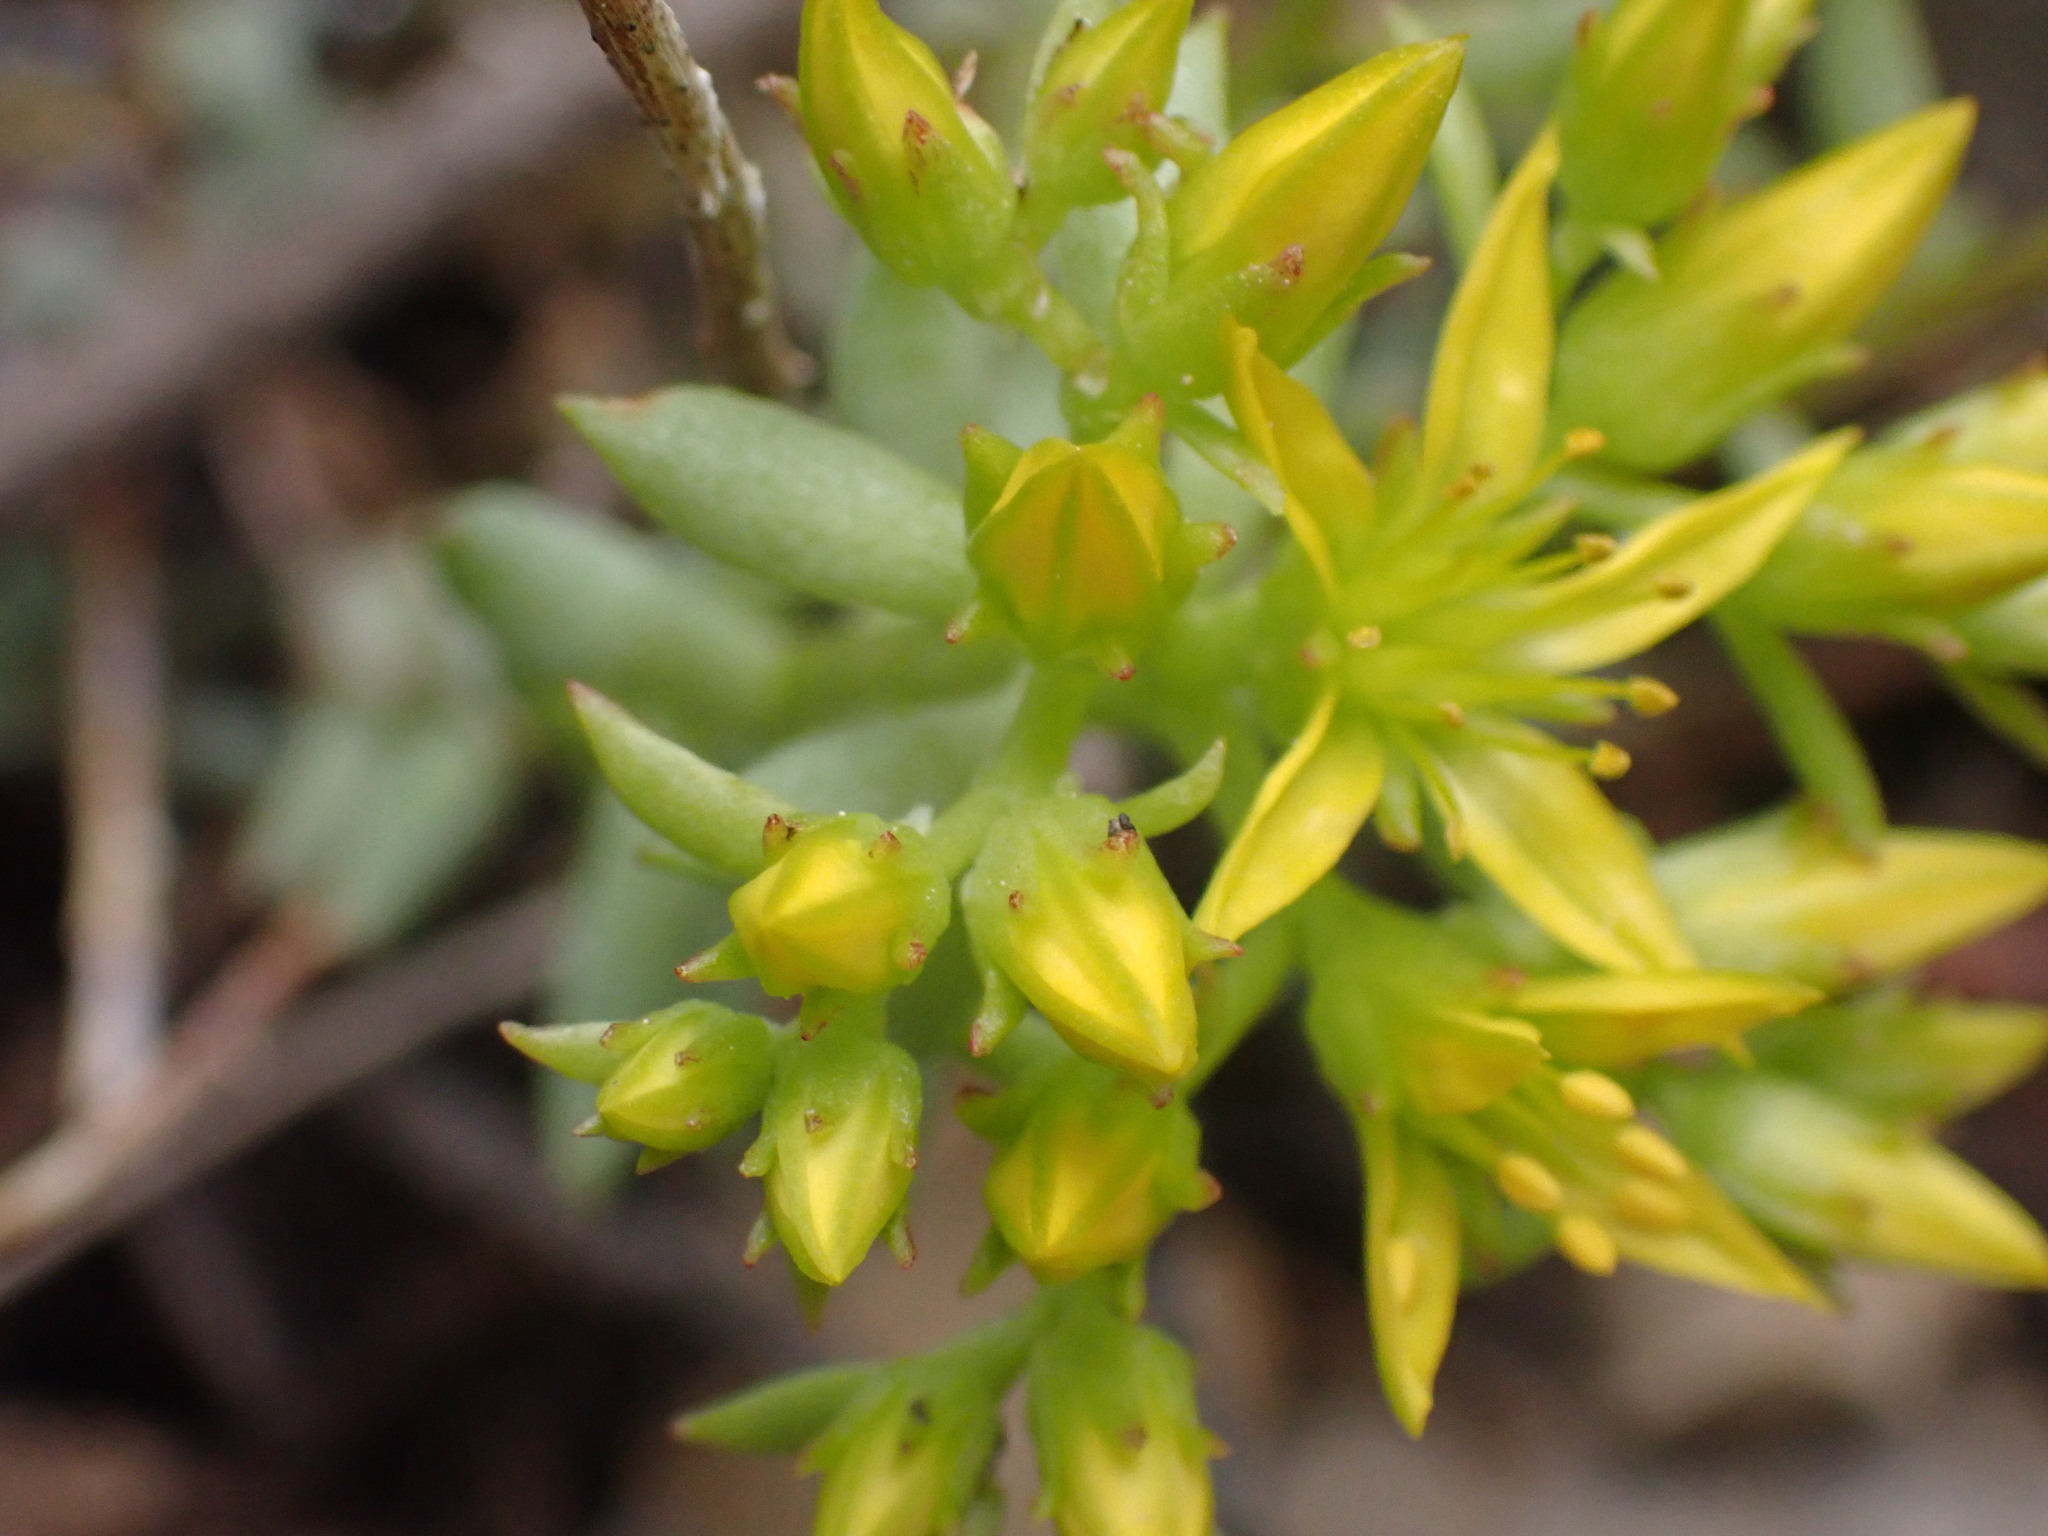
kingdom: Plantae
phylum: Tracheophyta
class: Magnoliopsida
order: Saxifragales
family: Crassulaceae
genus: Sedum
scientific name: Sedum lanceolatum
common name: Common stonecrop
